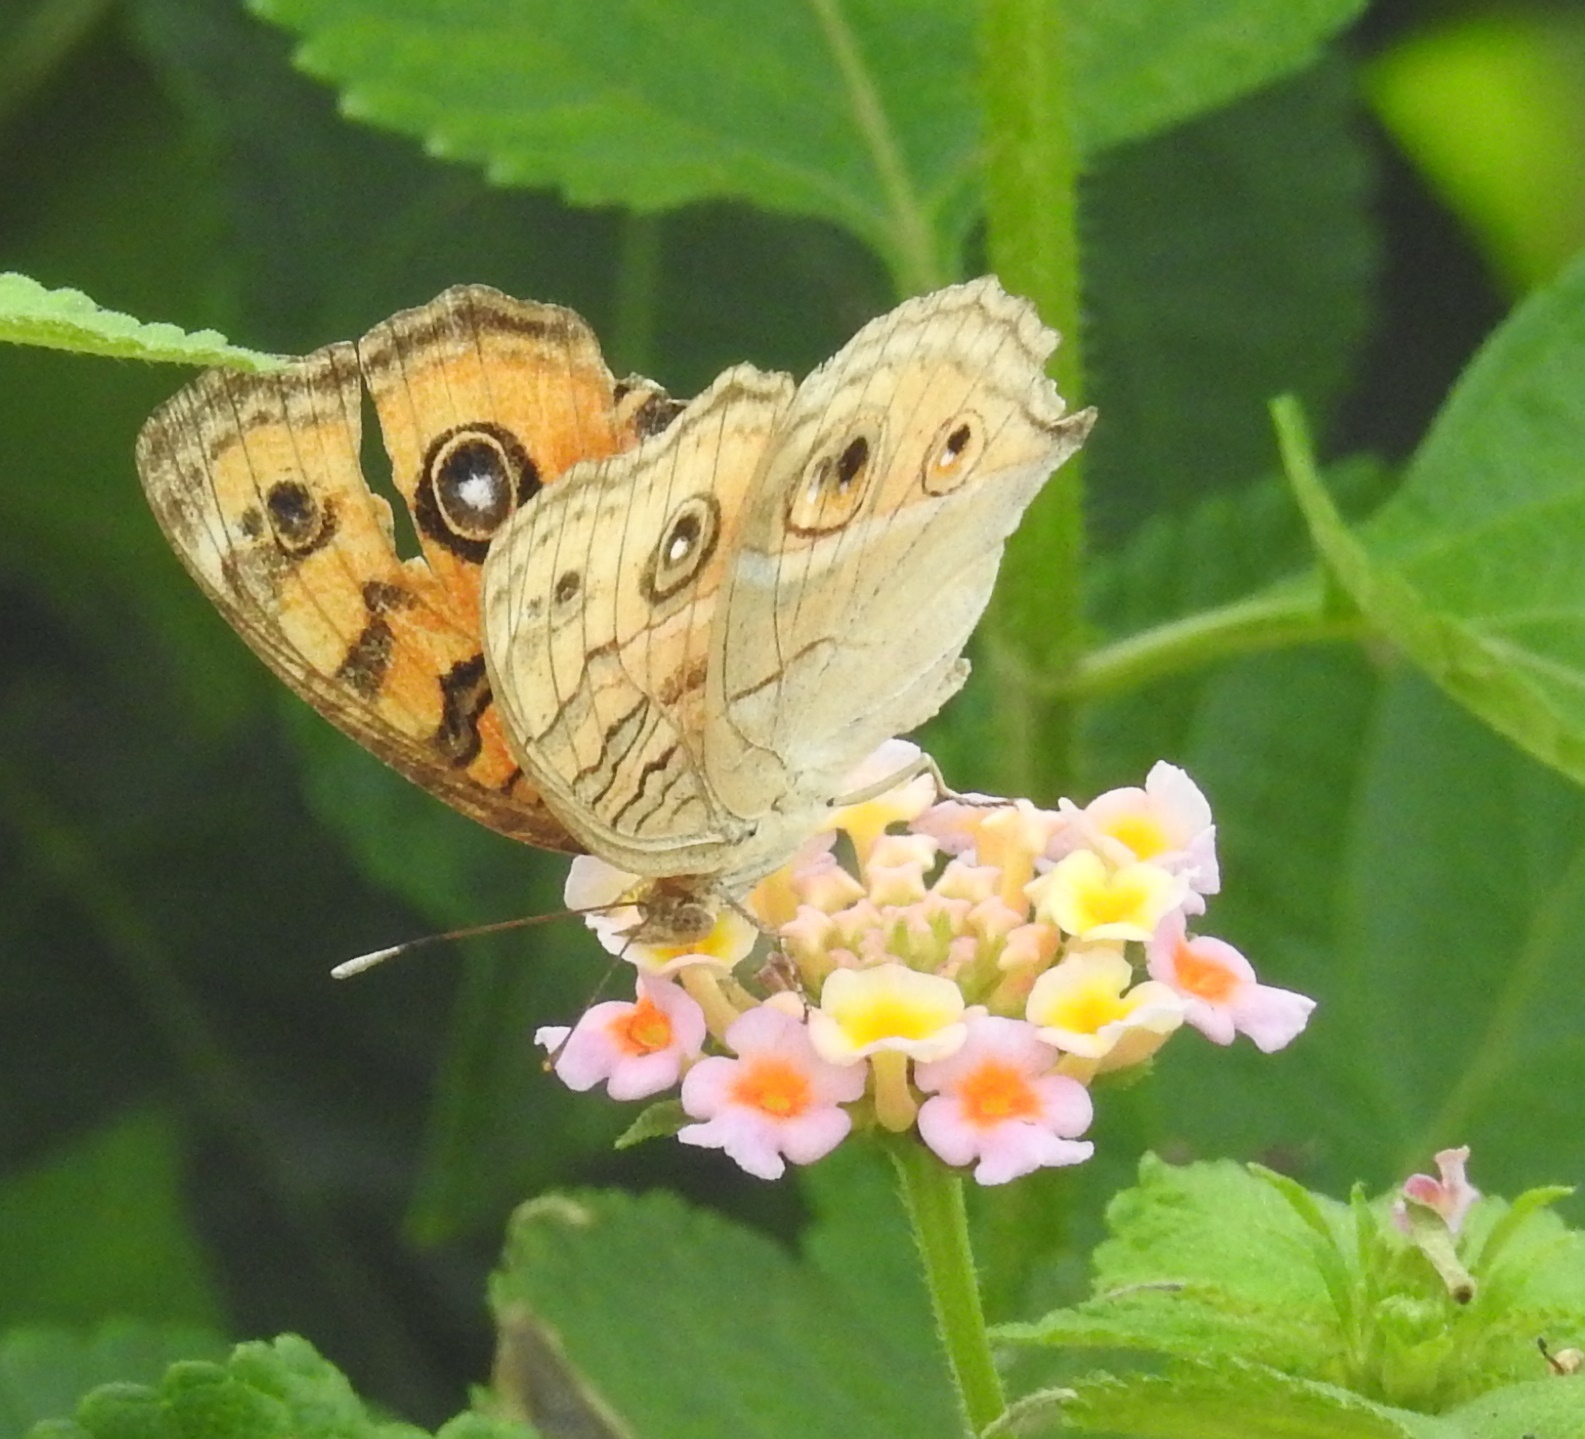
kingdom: Animalia
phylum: Arthropoda
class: Insecta
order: Lepidoptera
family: Nymphalidae
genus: Junonia
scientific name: Junonia almana
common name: Peacock pansy
